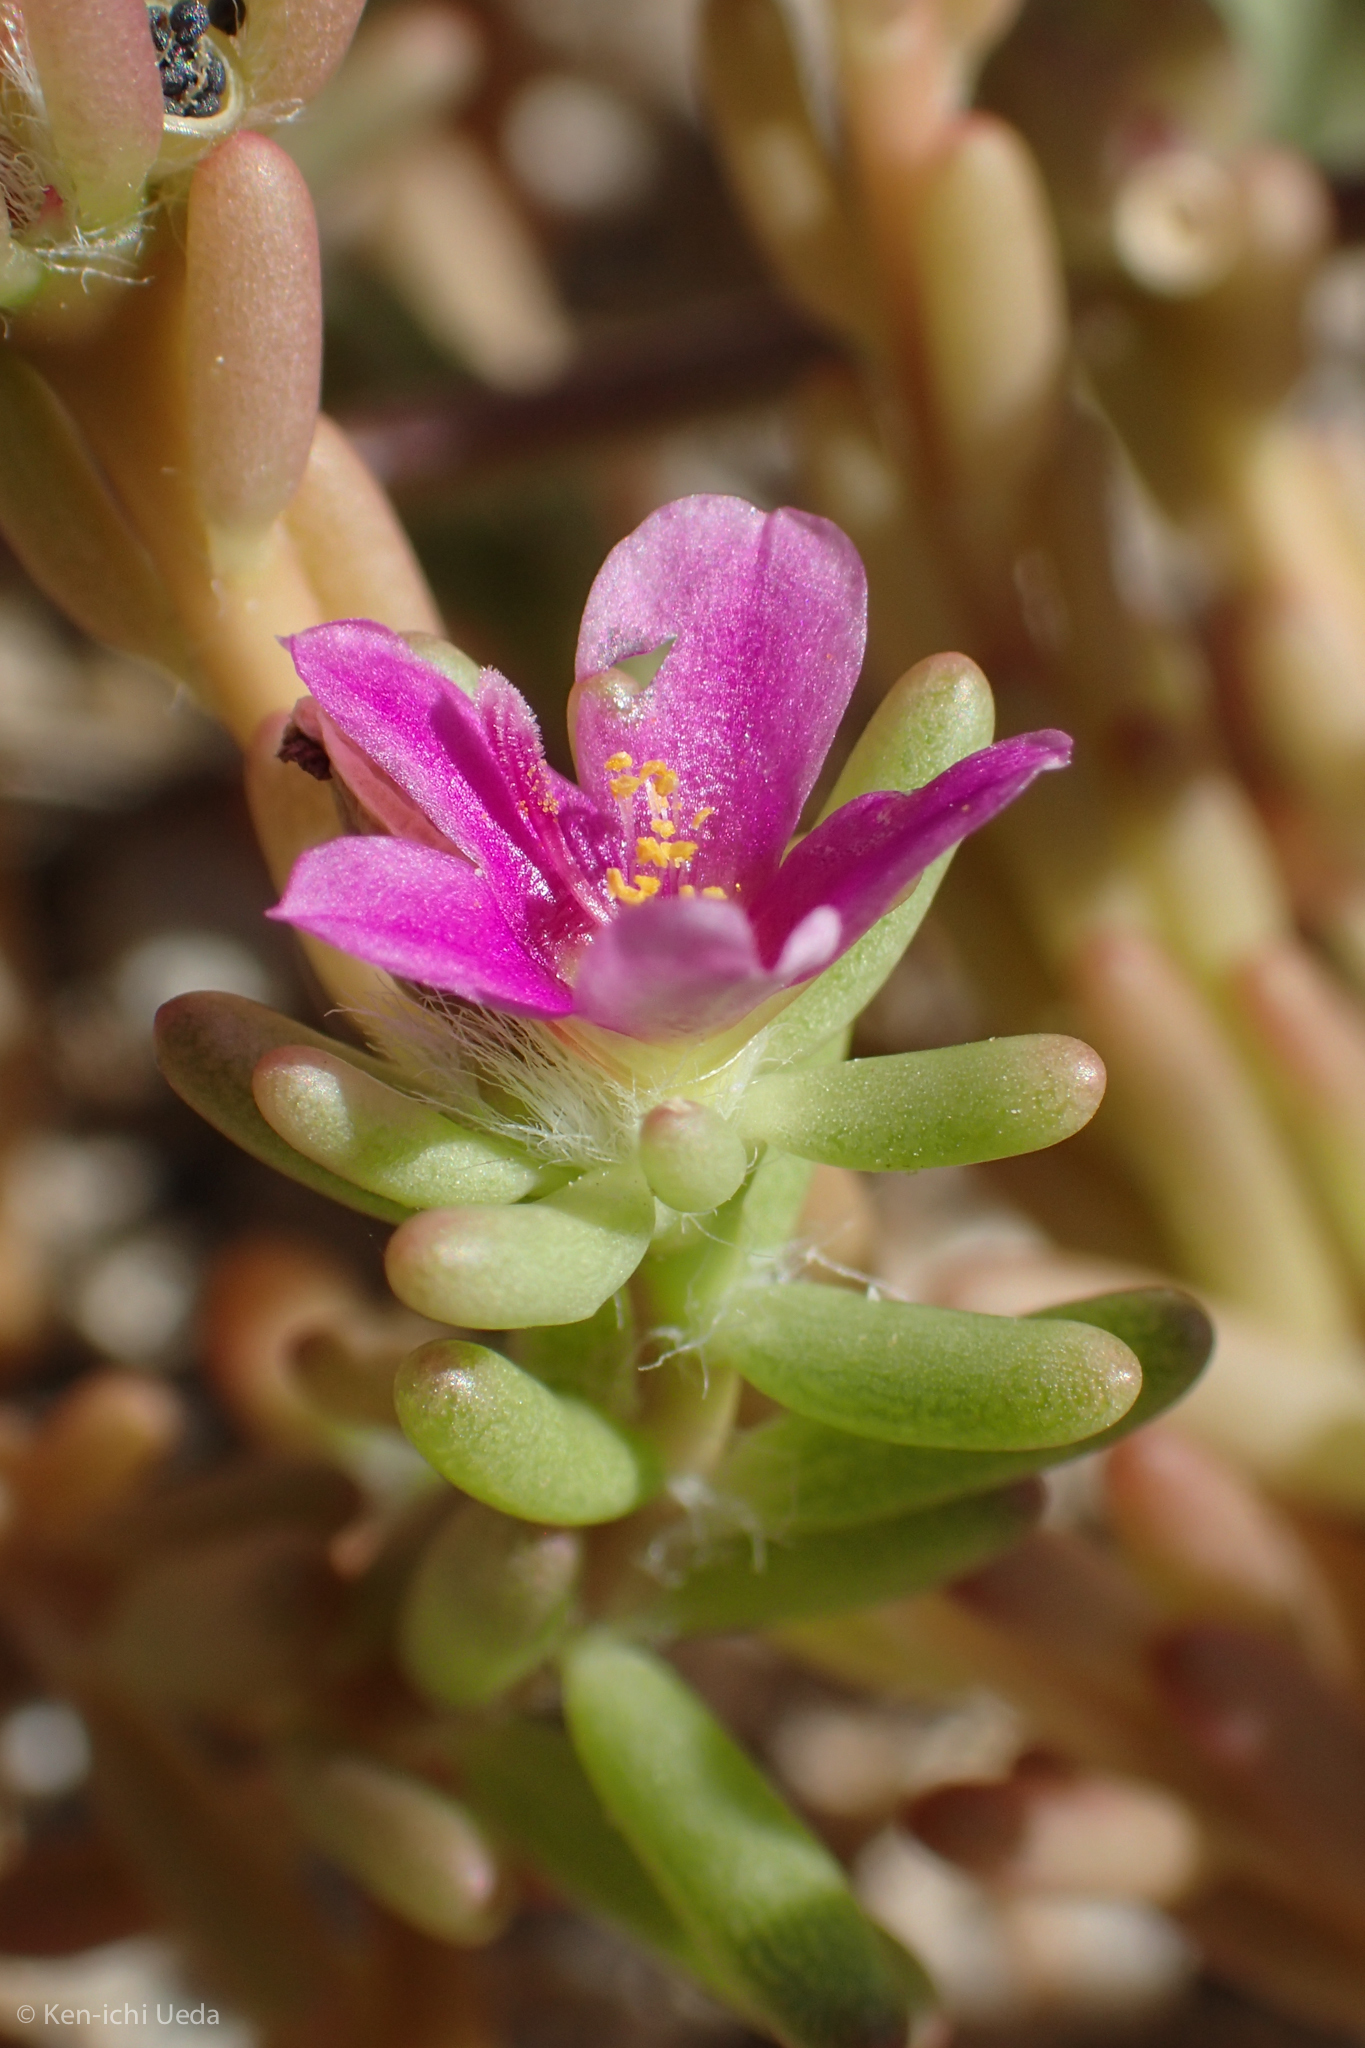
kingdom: Plantae
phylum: Tracheophyta
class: Magnoliopsida
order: Caryophyllales
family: Portulacaceae
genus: Portulaca
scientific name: Portulaca californica
